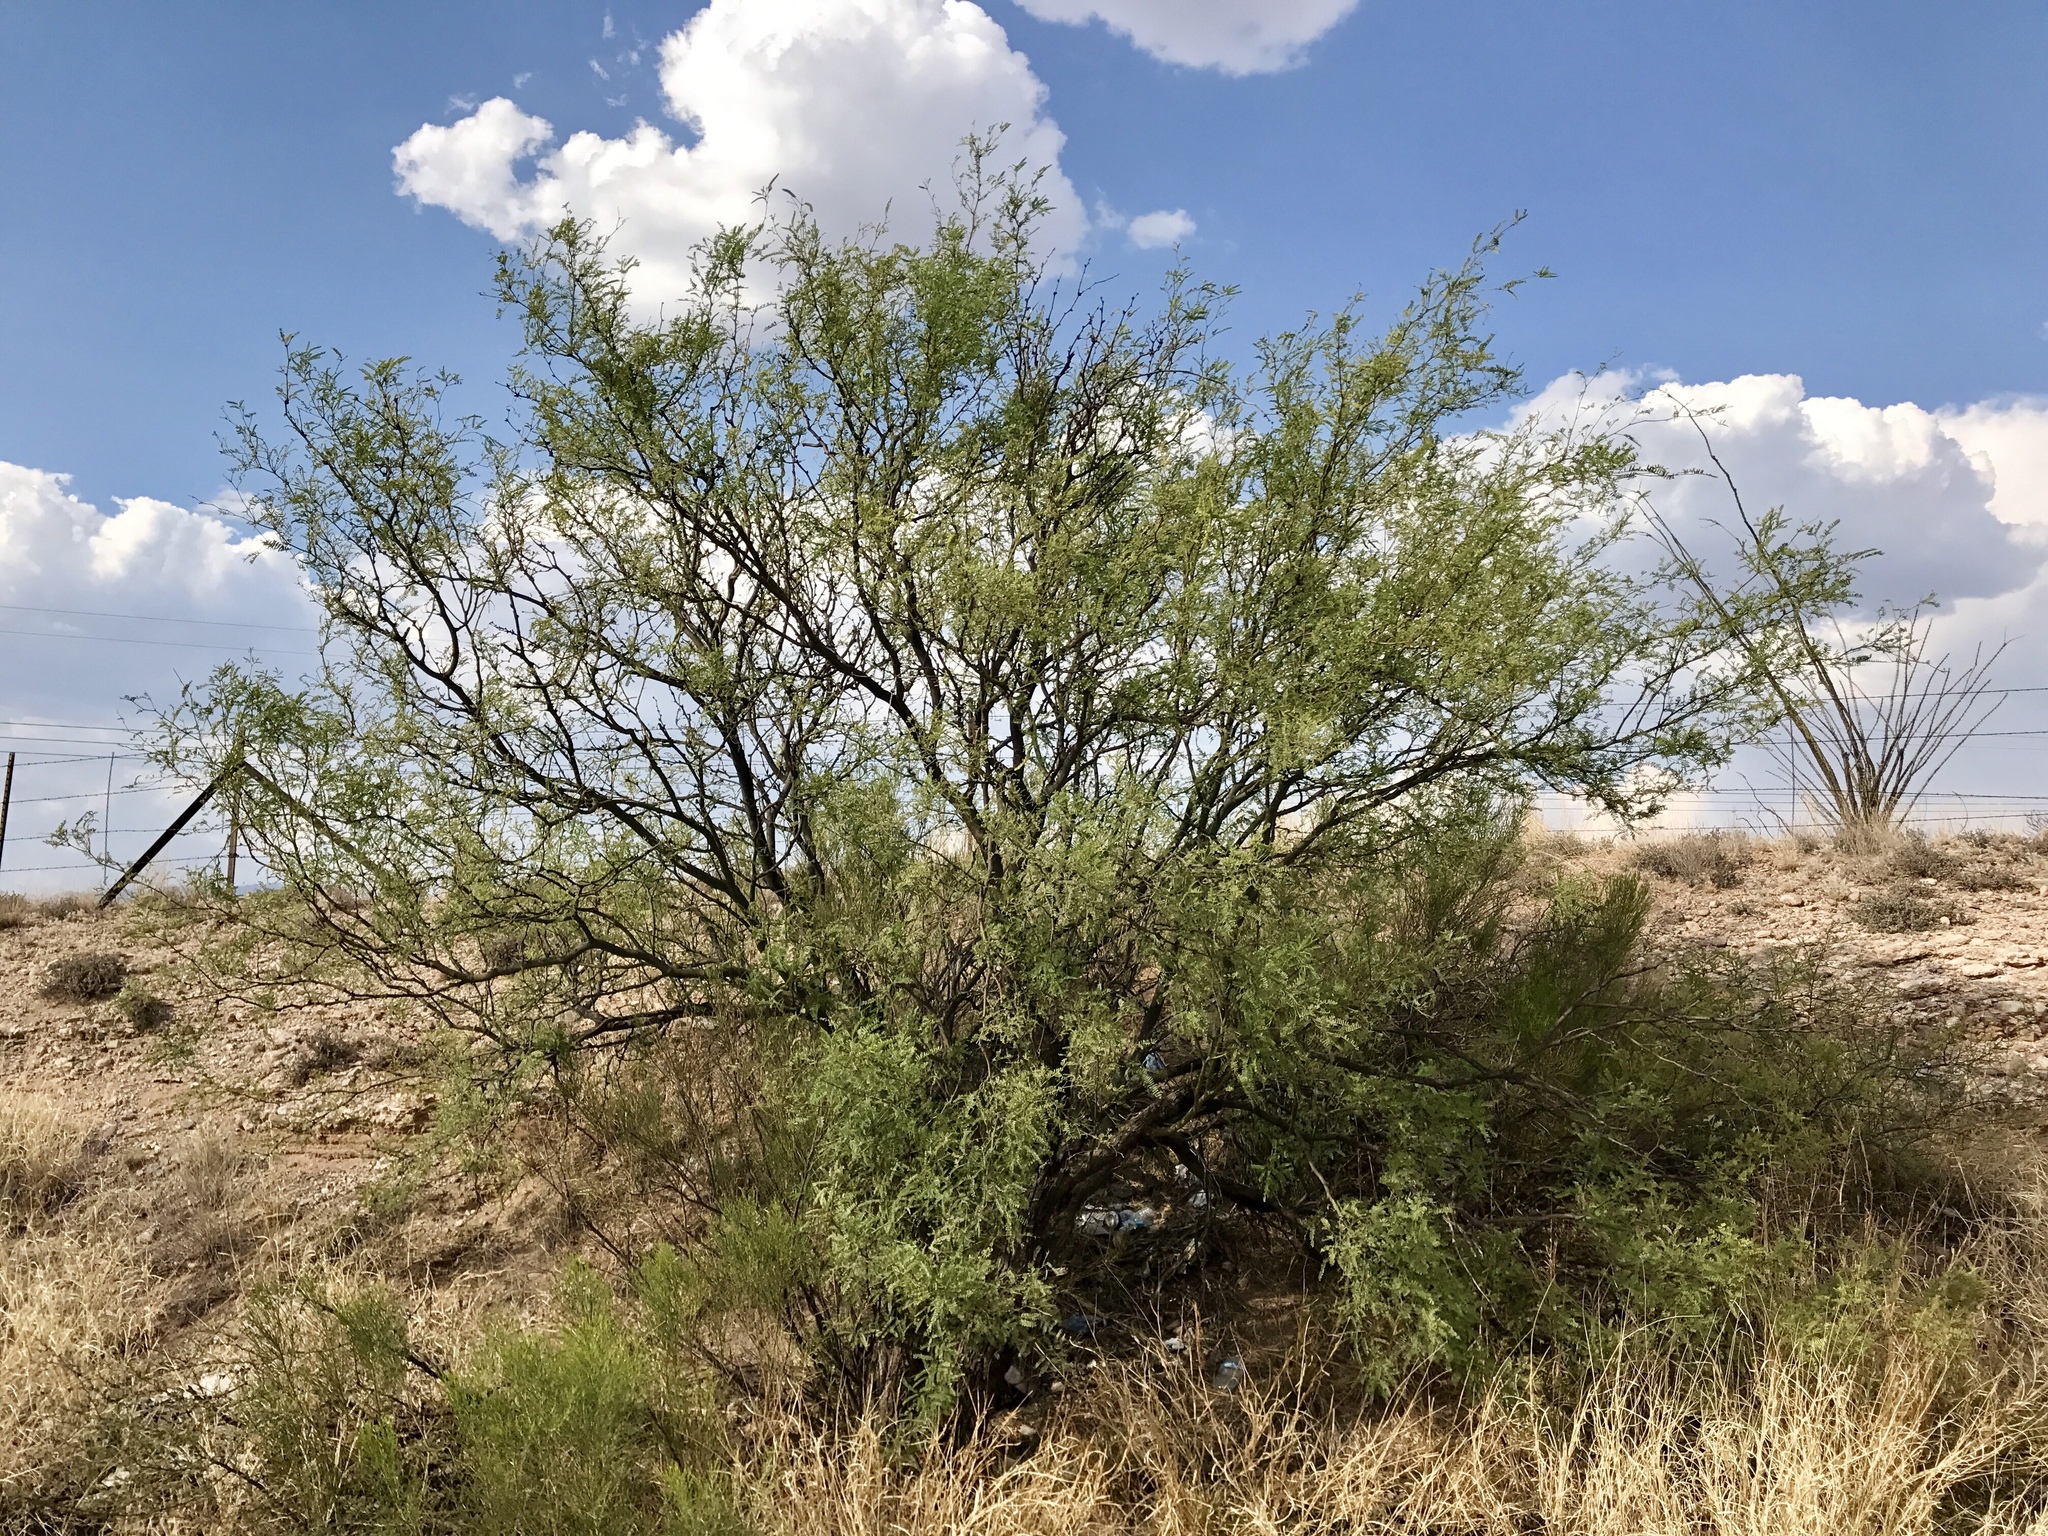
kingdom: Plantae
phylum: Tracheophyta
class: Magnoliopsida
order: Fabales
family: Fabaceae
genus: Prosopis
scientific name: Prosopis velutina
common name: Velvet mesquite
